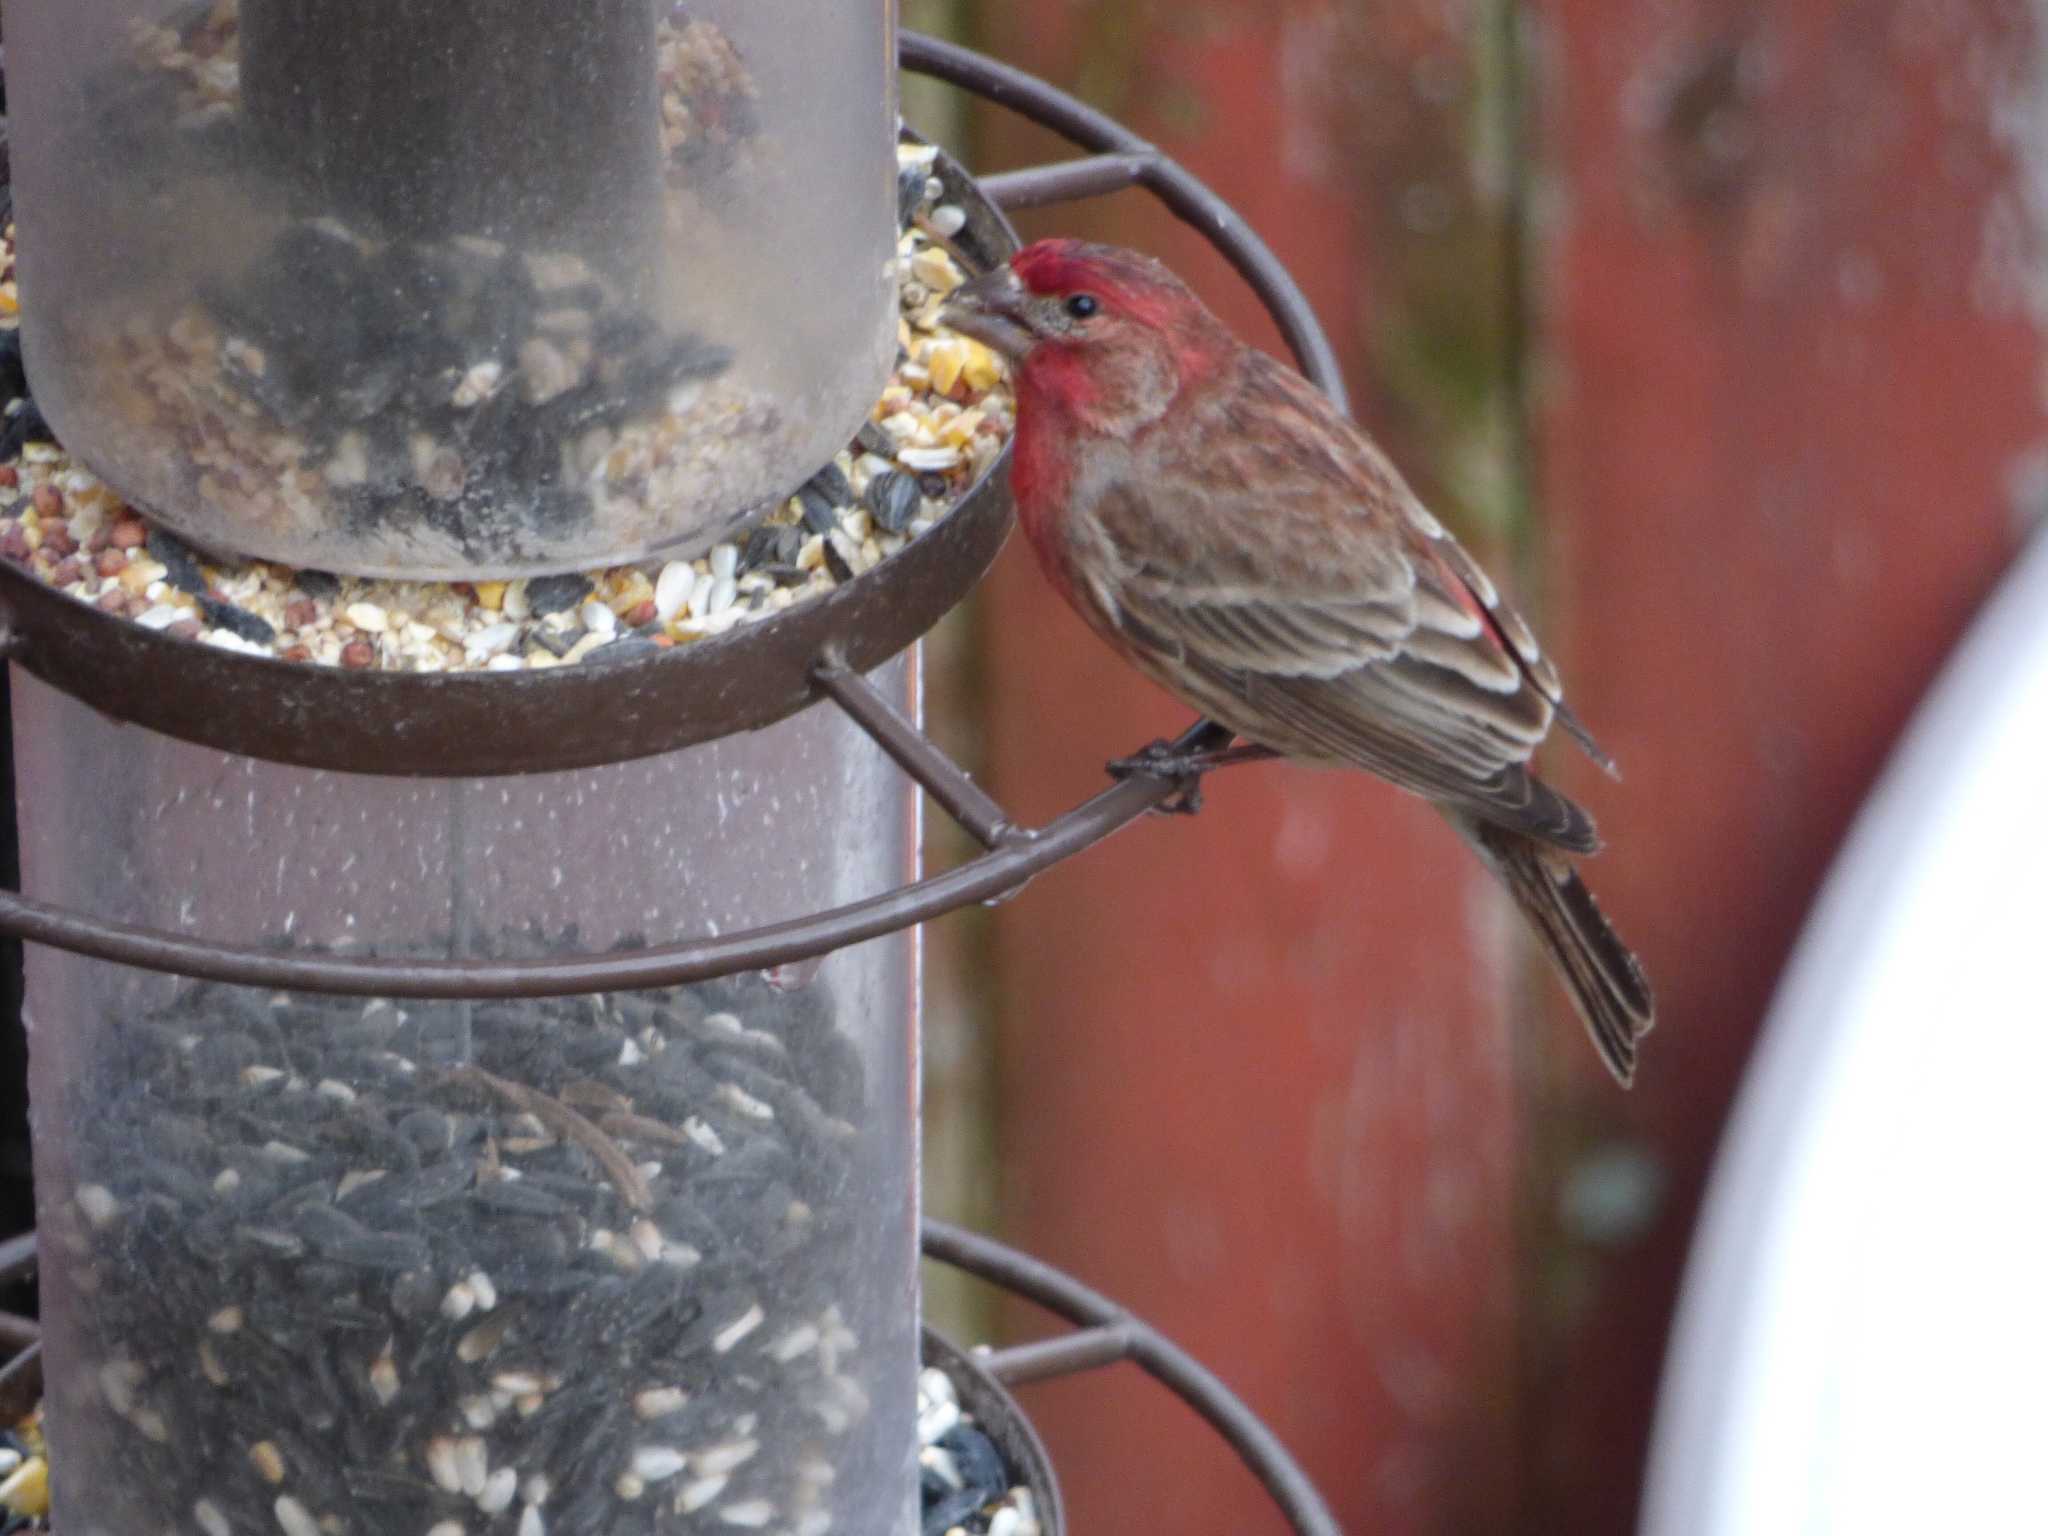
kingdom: Animalia
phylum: Chordata
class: Aves
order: Passeriformes
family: Fringillidae
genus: Haemorhous
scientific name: Haemorhous mexicanus
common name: House finch
